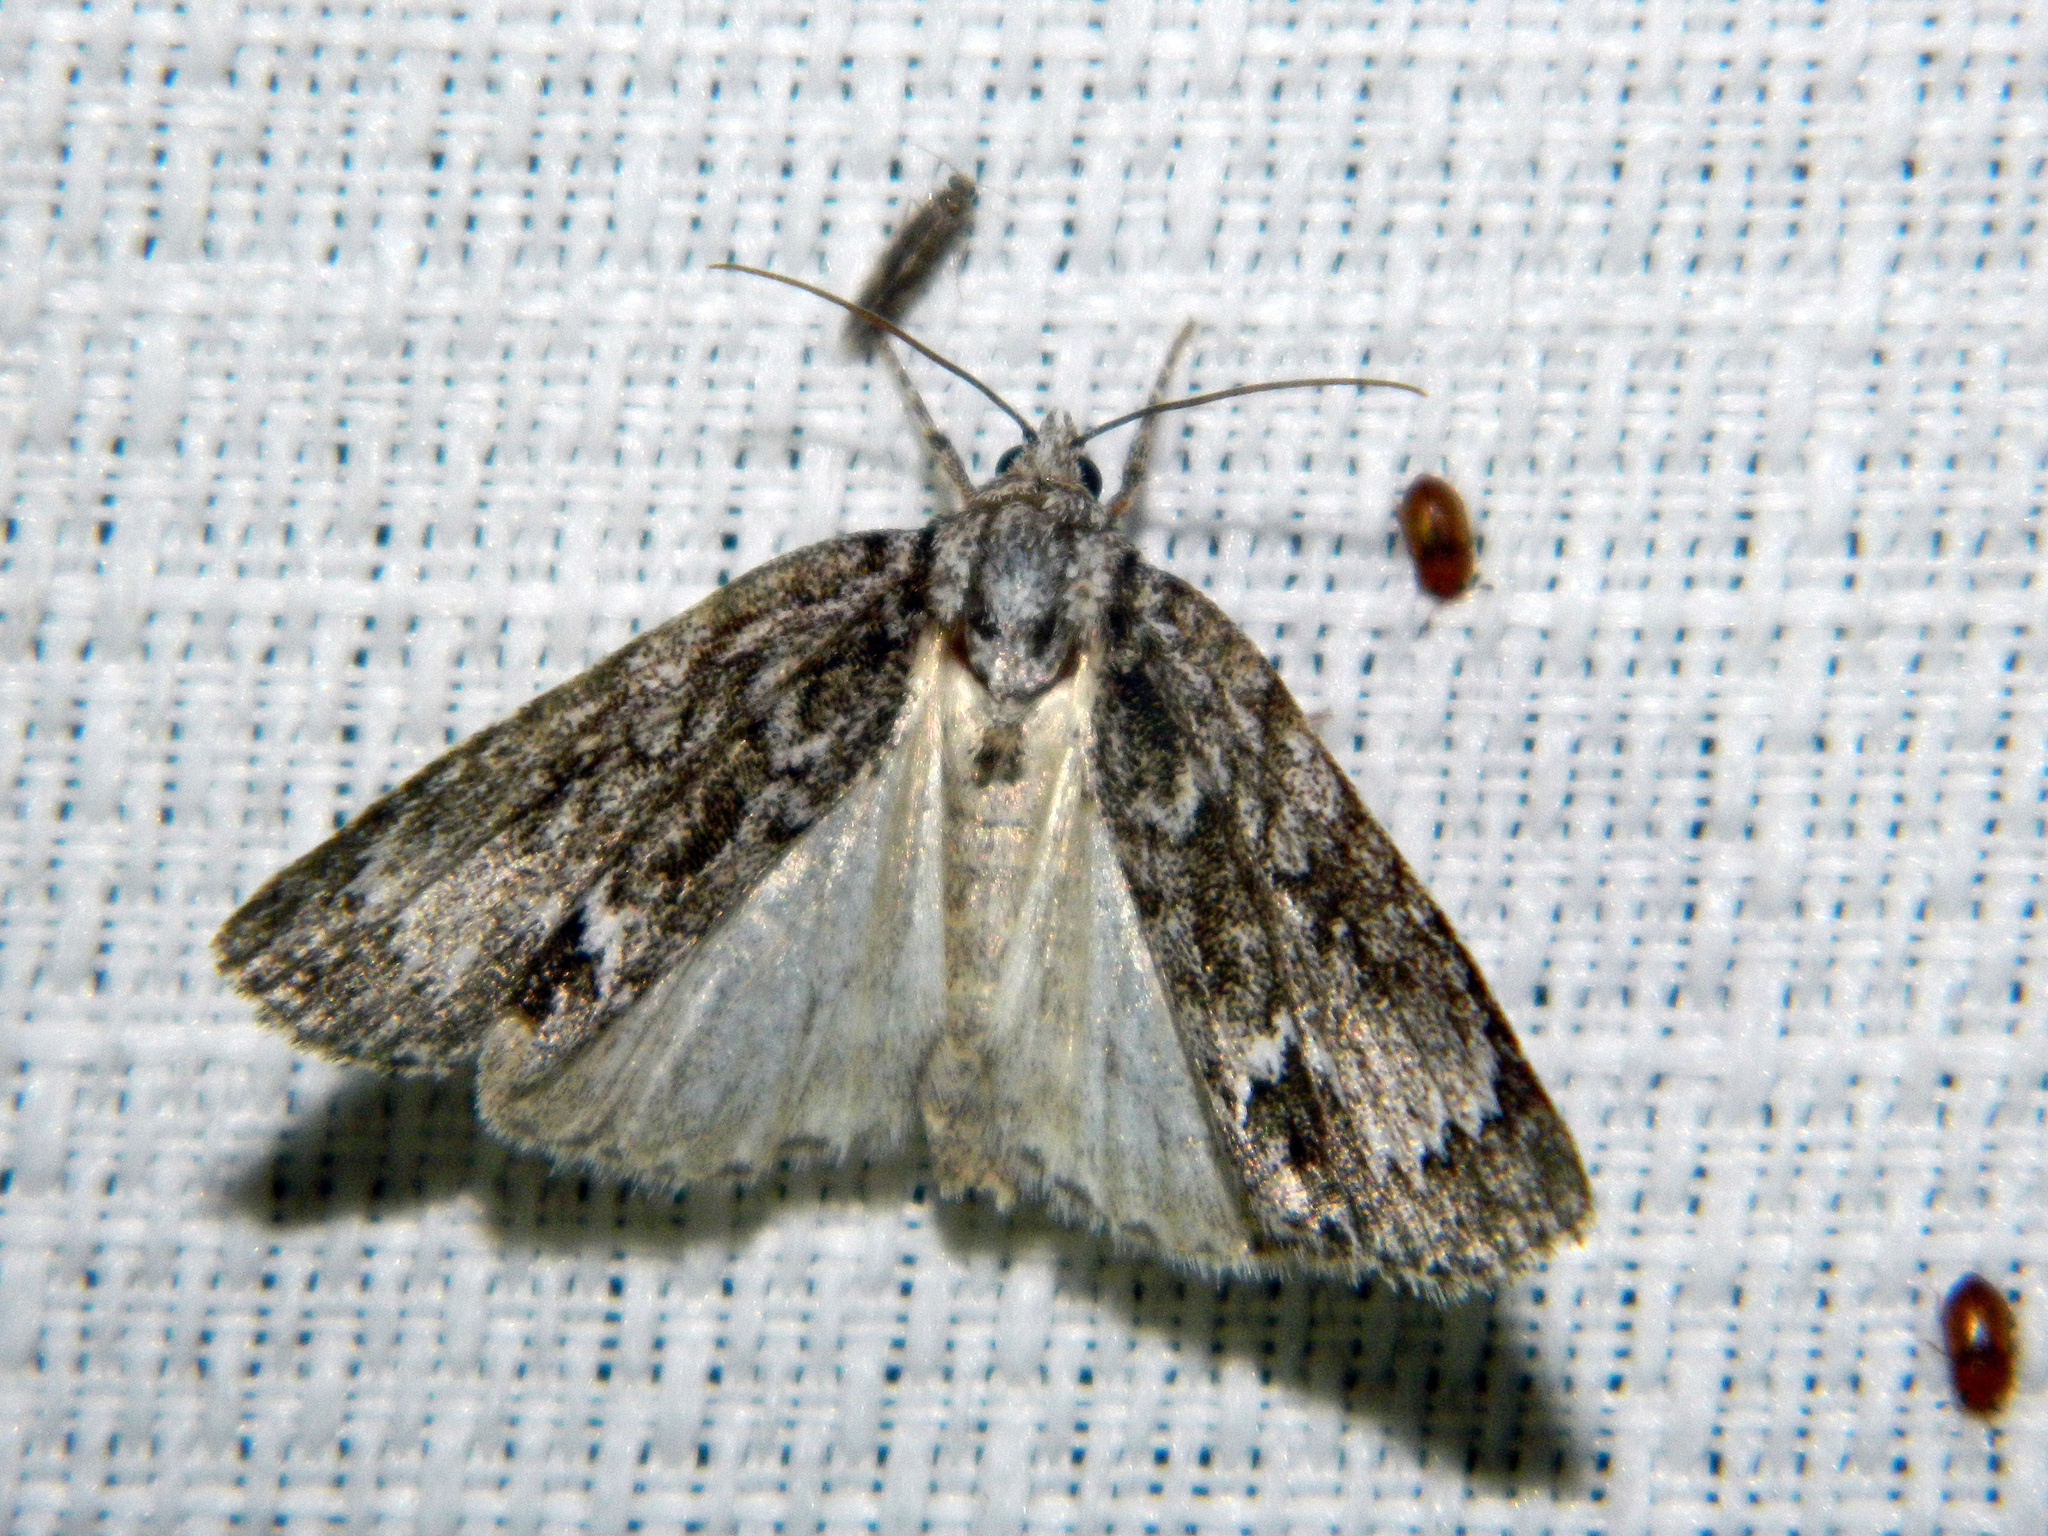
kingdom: Animalia
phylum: Arthropoda
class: Insecta
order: Lepidoptera
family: Noctuidae
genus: Acronicta
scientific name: Acronicta fragilis
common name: Fragile dagger
